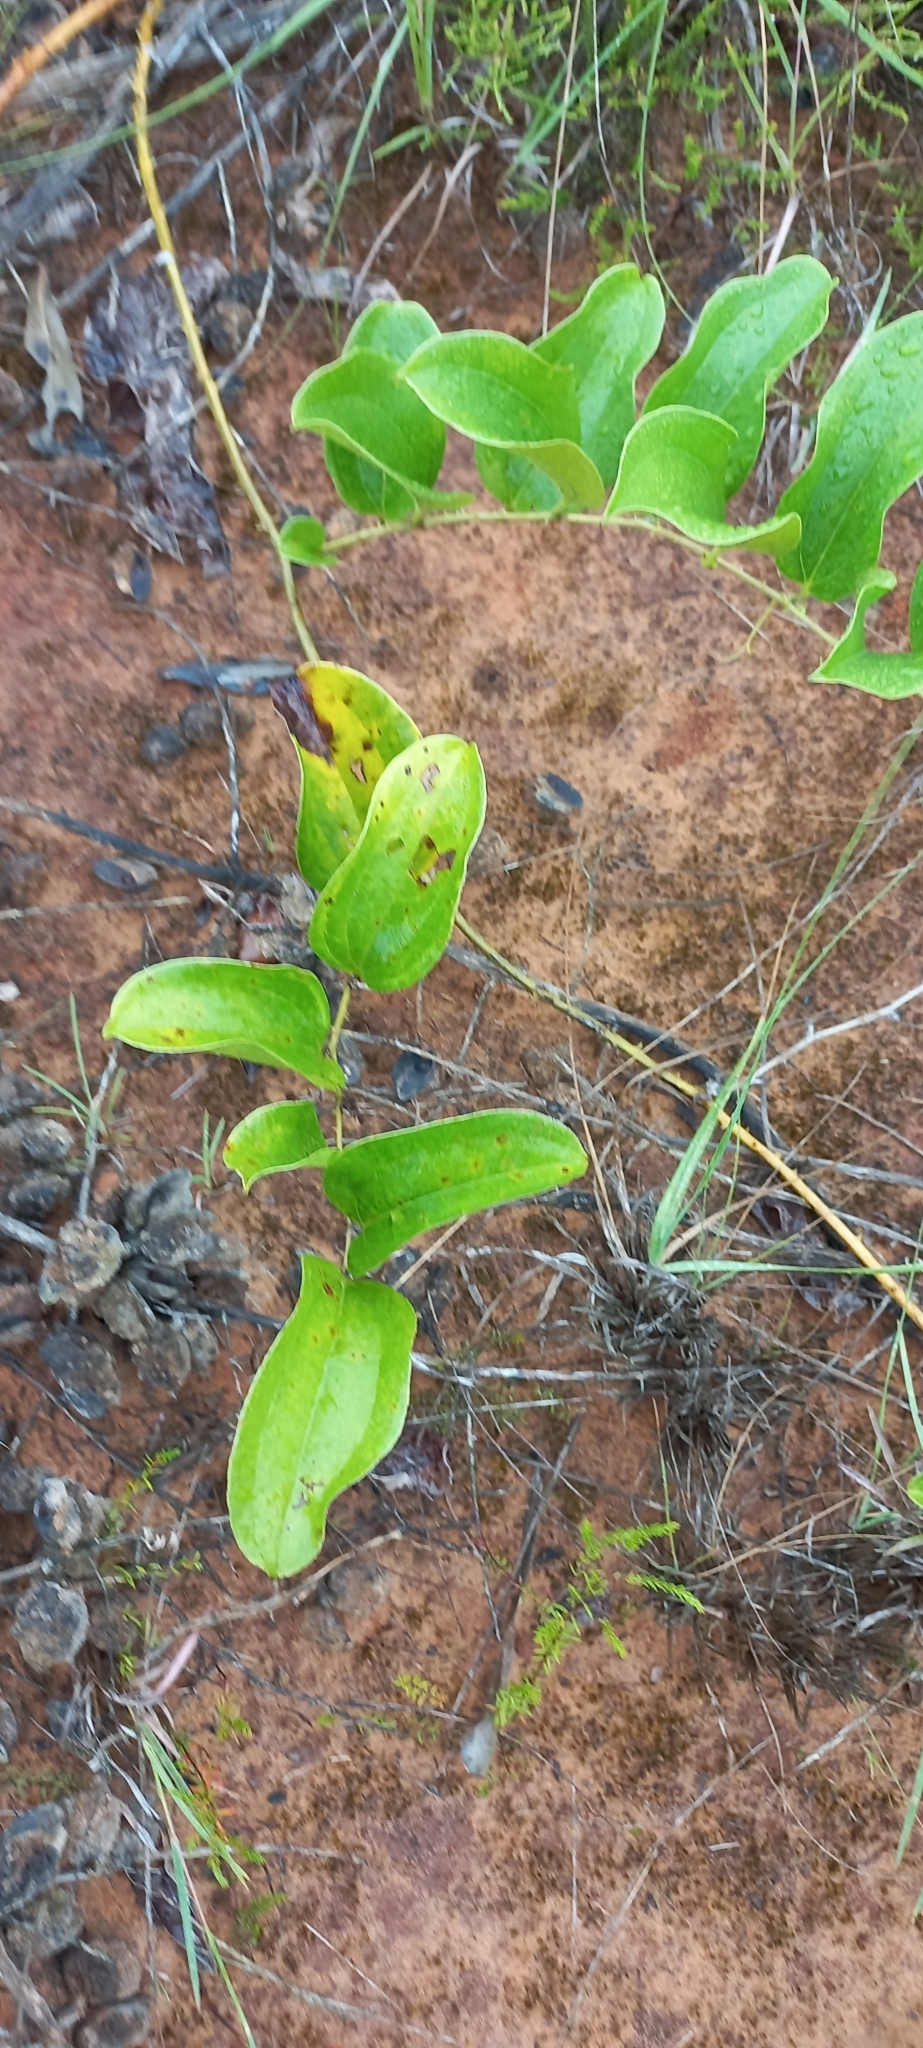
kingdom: Plantae
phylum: Tracheophyta
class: Liliopsida
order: Liliales
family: Smilacaceae
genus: Smilax
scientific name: Smilax anceps
